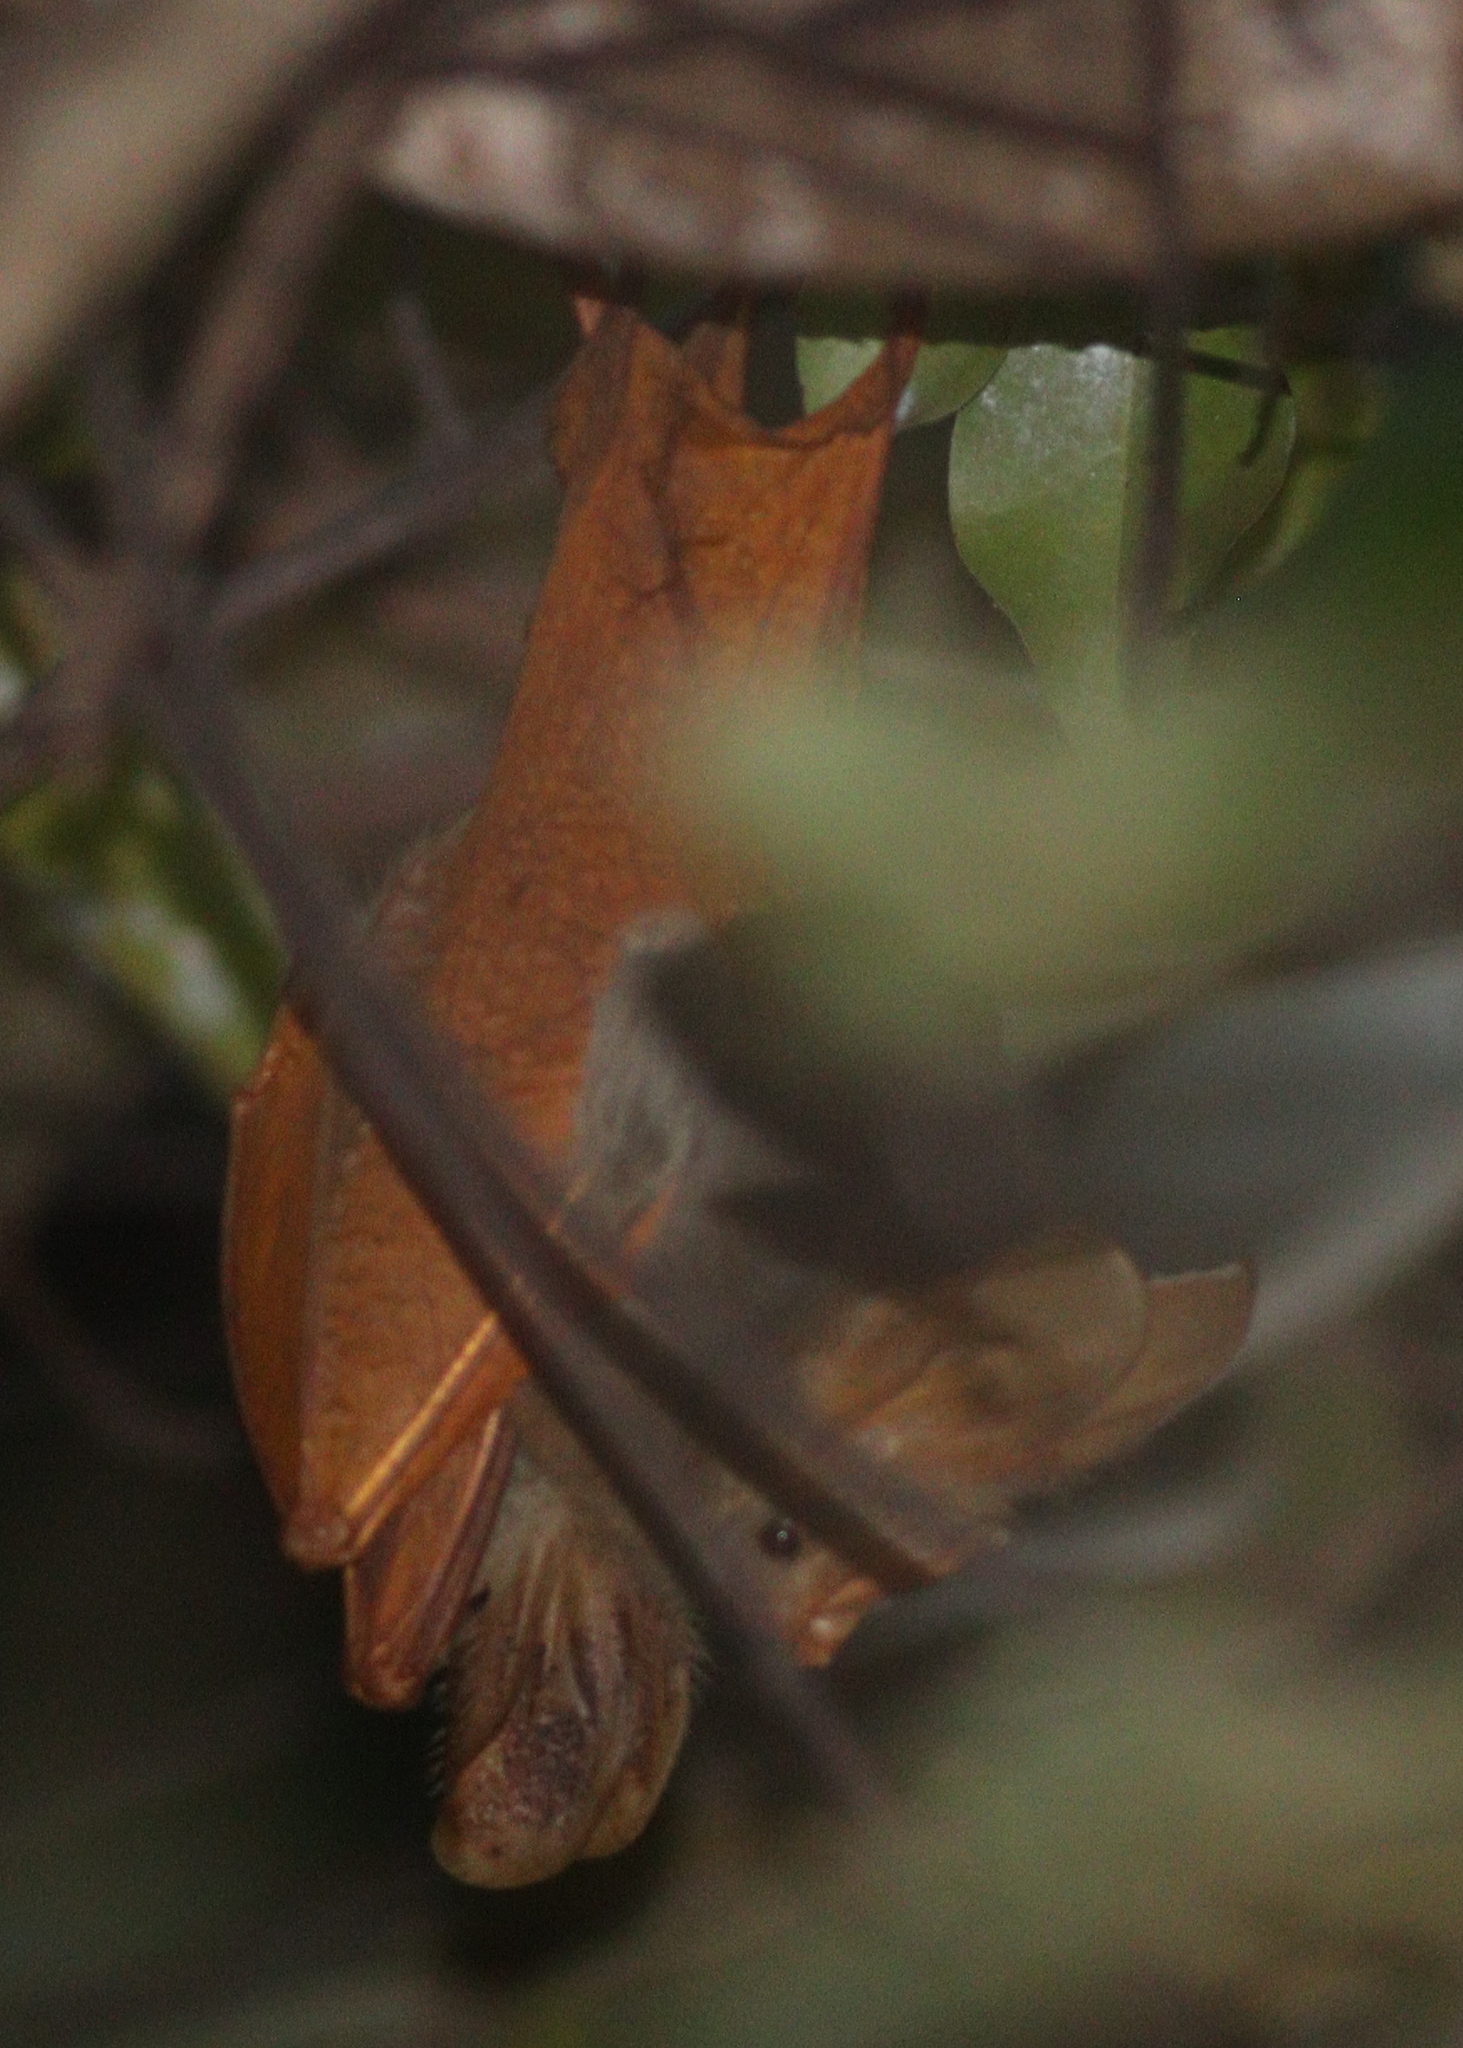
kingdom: Animalia
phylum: Chordata
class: Mammalia
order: Chiroptera
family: Megadermatidae
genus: Lavia
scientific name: Lavia frons
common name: Yellow-winged bat
